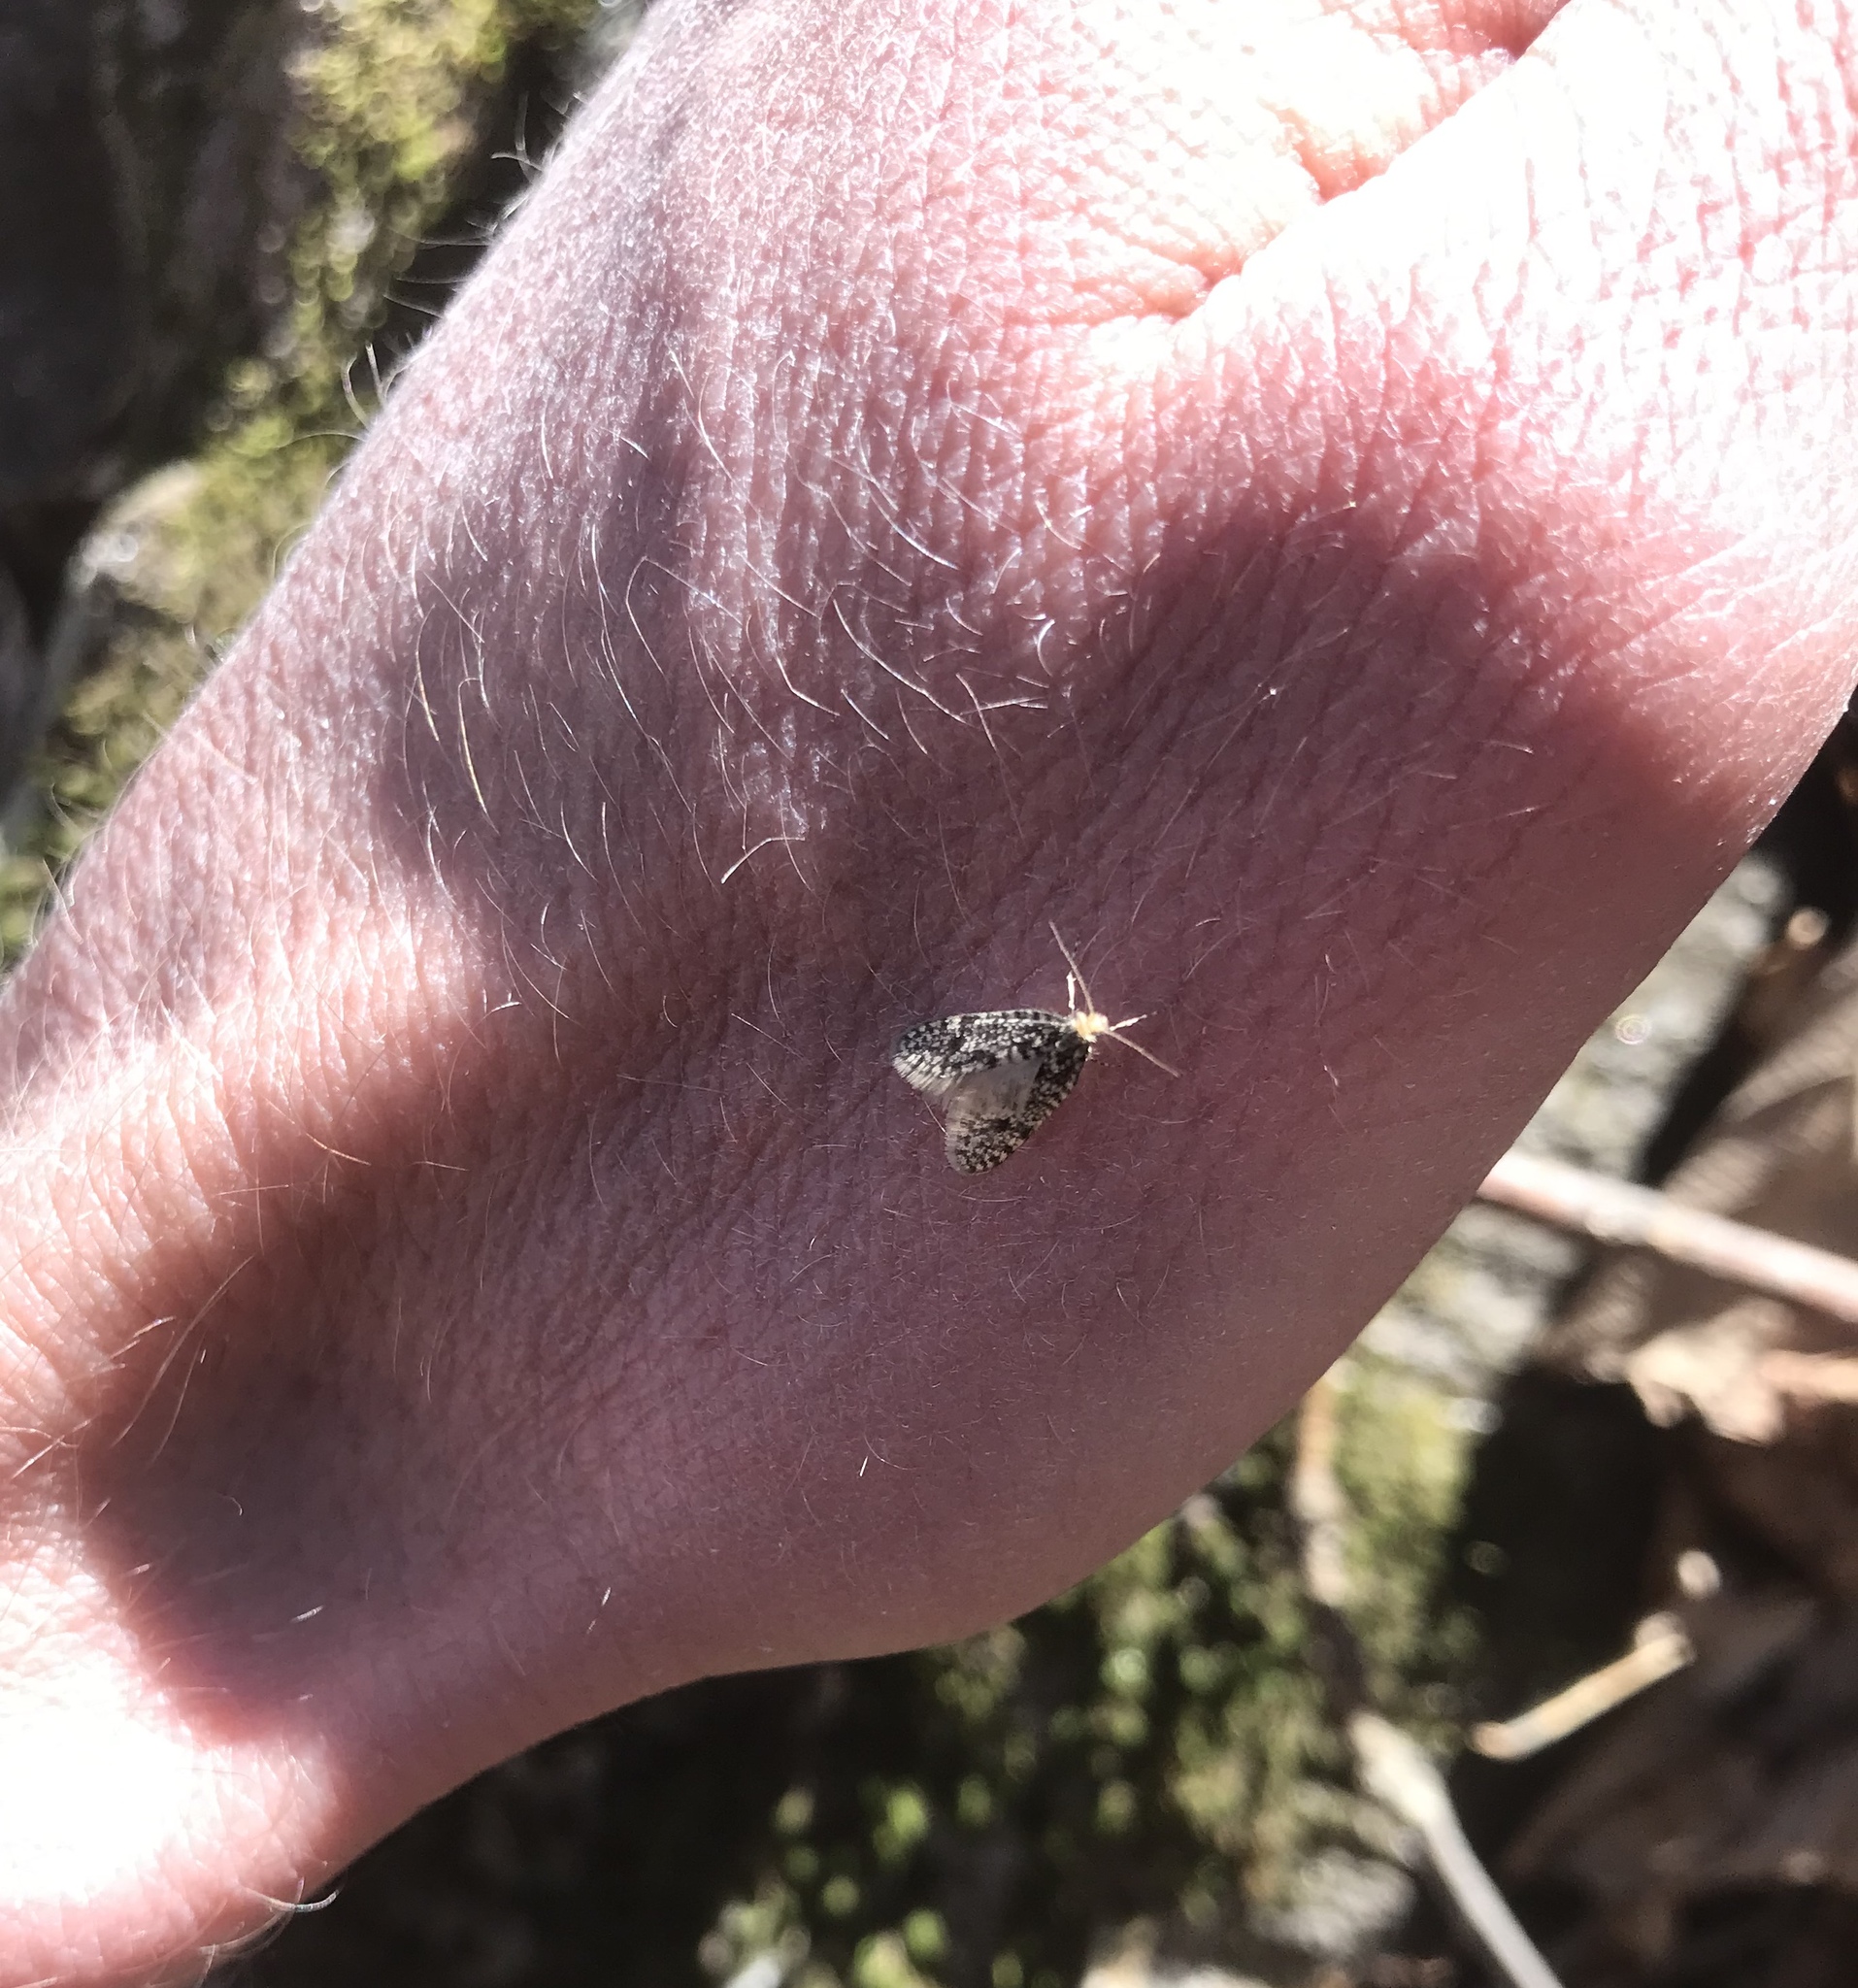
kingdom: Animalia
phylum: Arthropoda
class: Insecta
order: Lepidoptera
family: Psychidae
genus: Dahlica
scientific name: Dahlica walshella
